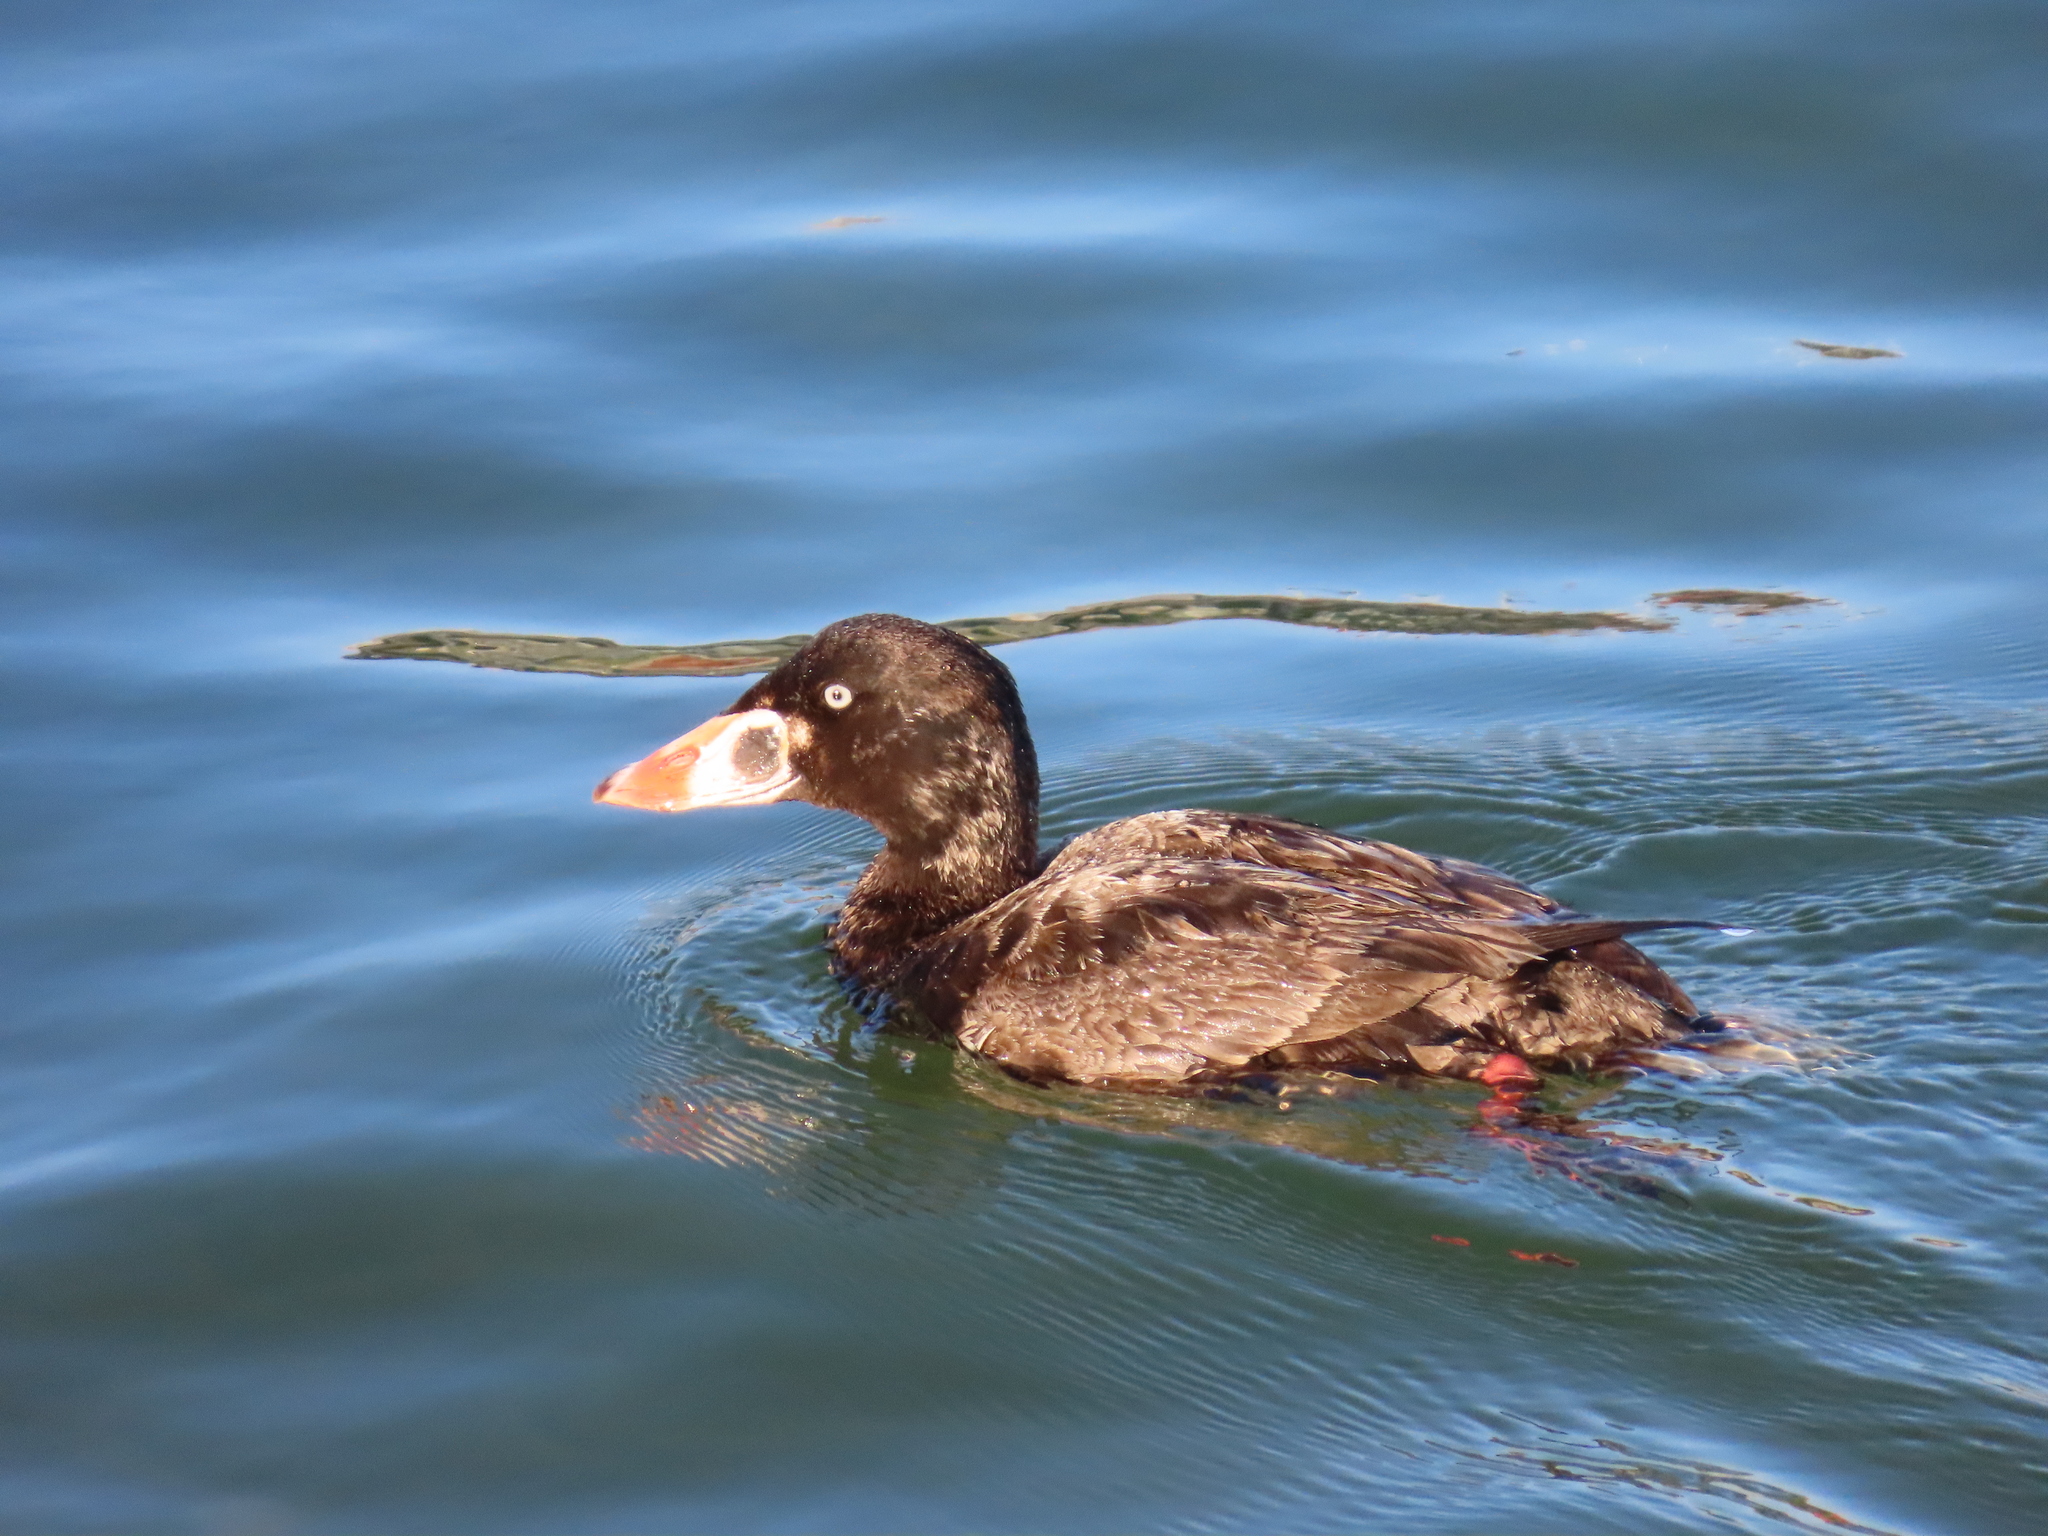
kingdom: Animalia
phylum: Chordata
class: Aves
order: Anseriformes
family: Anatidae
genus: Melanitta
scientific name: Melanitta perspicillata
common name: Surf scoter
